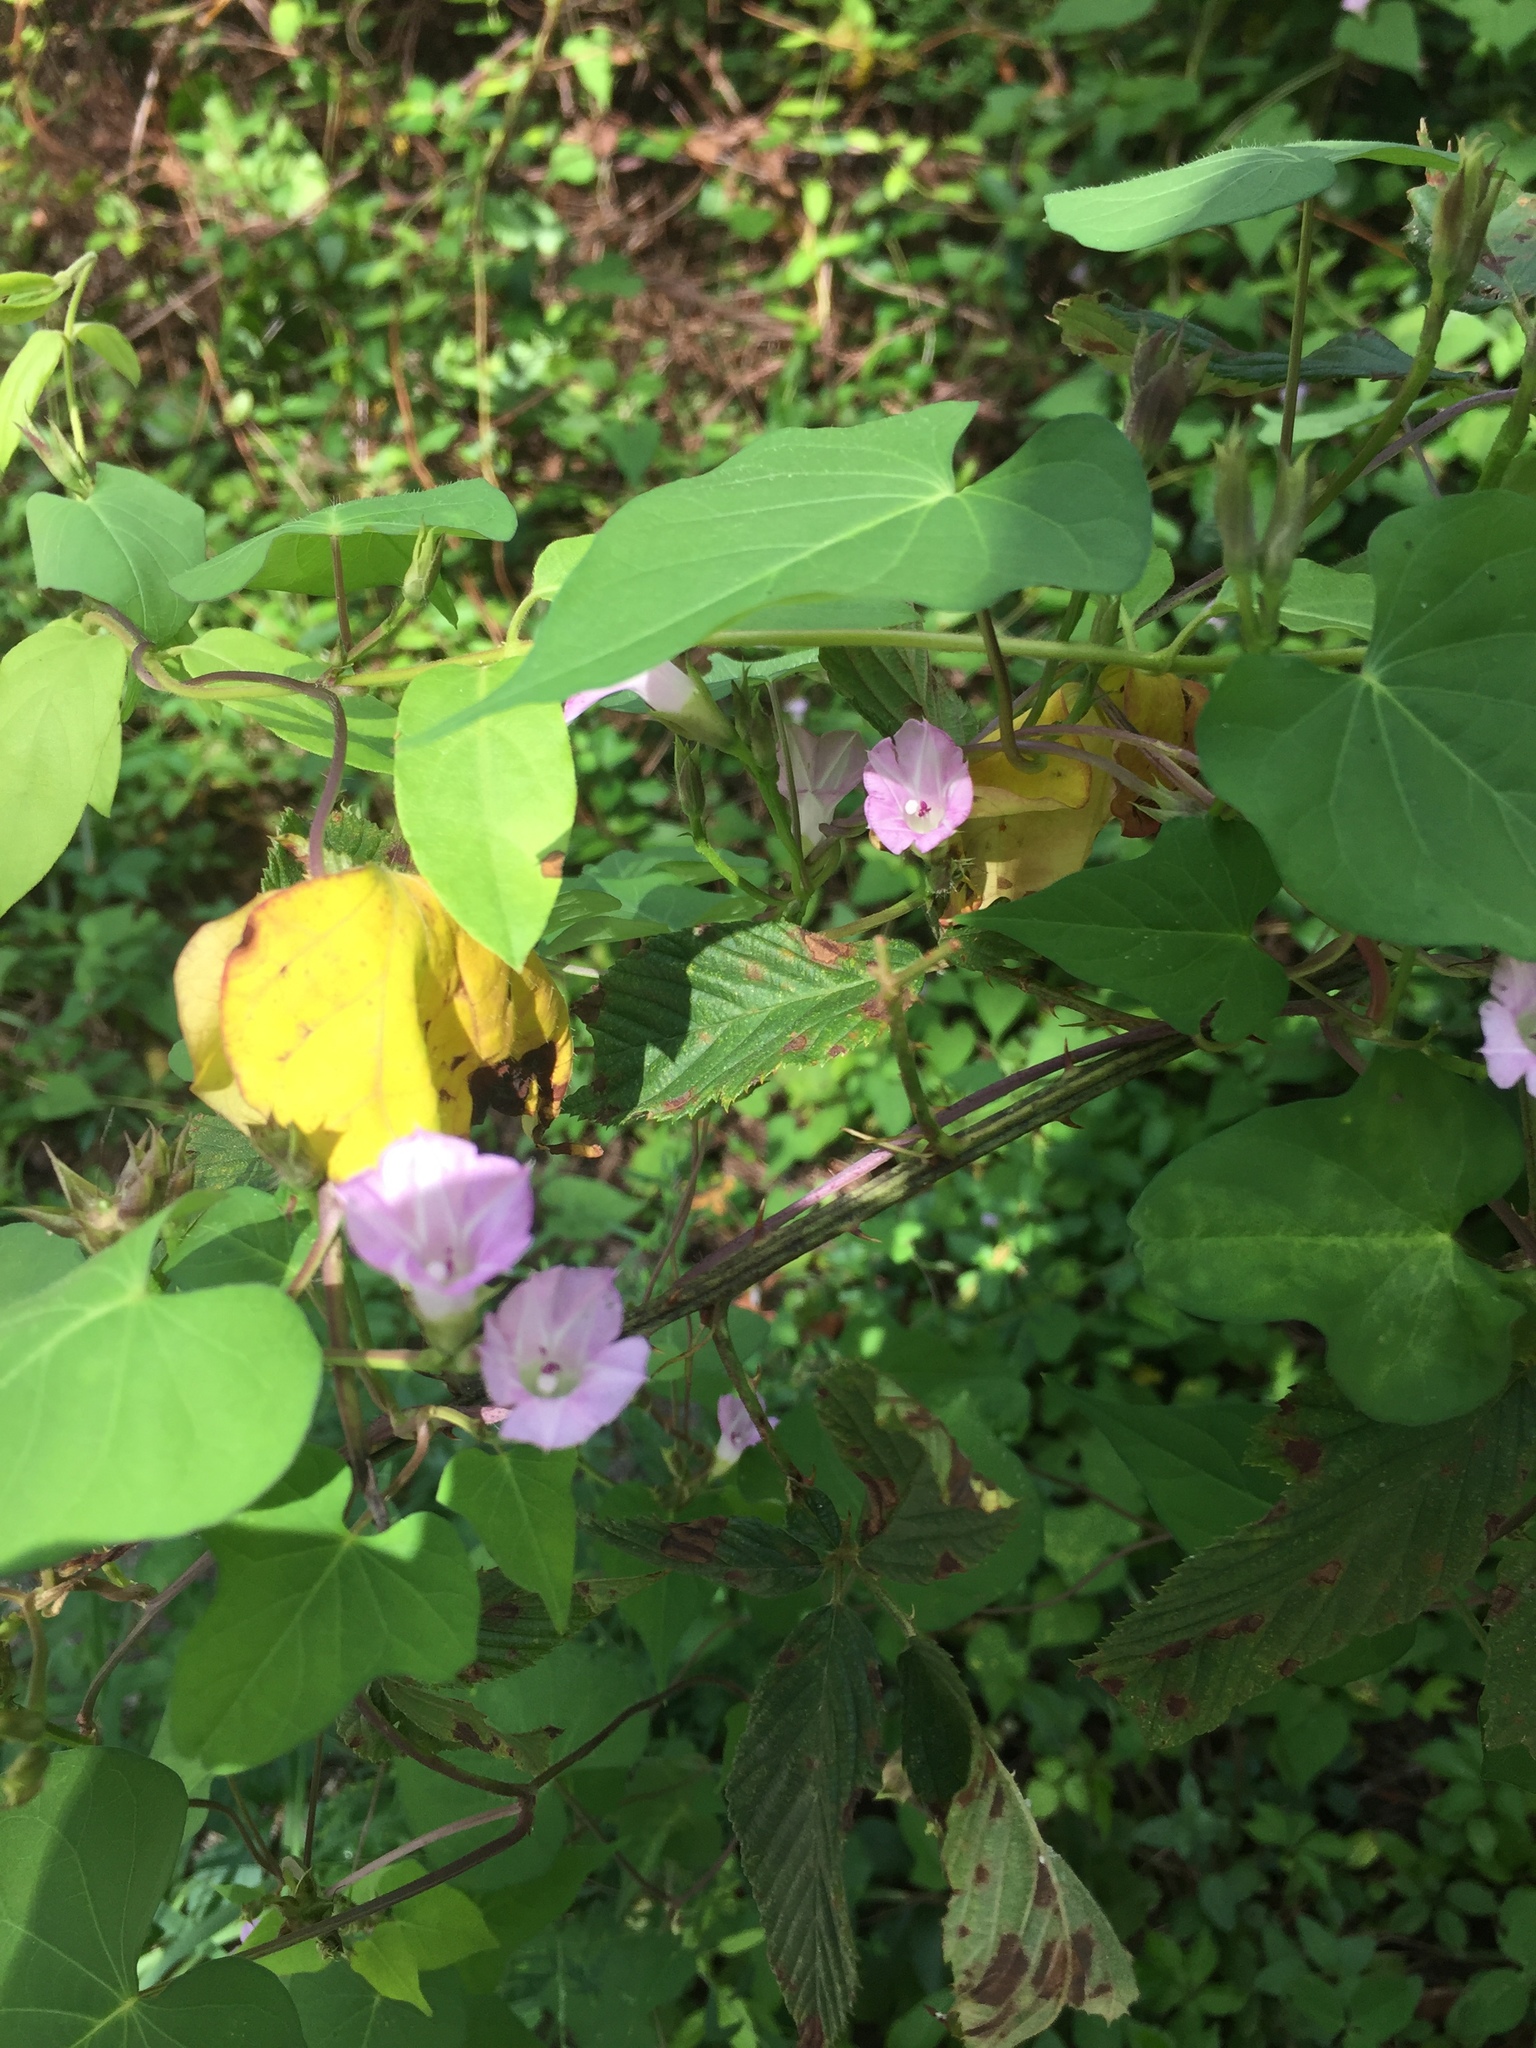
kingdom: Plantae
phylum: Tracheophyta
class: Magnoliopsida
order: Solanales
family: Convolvulaceae
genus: Ipomoea
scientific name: Ipomoea lacunosa
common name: White morning-glory
